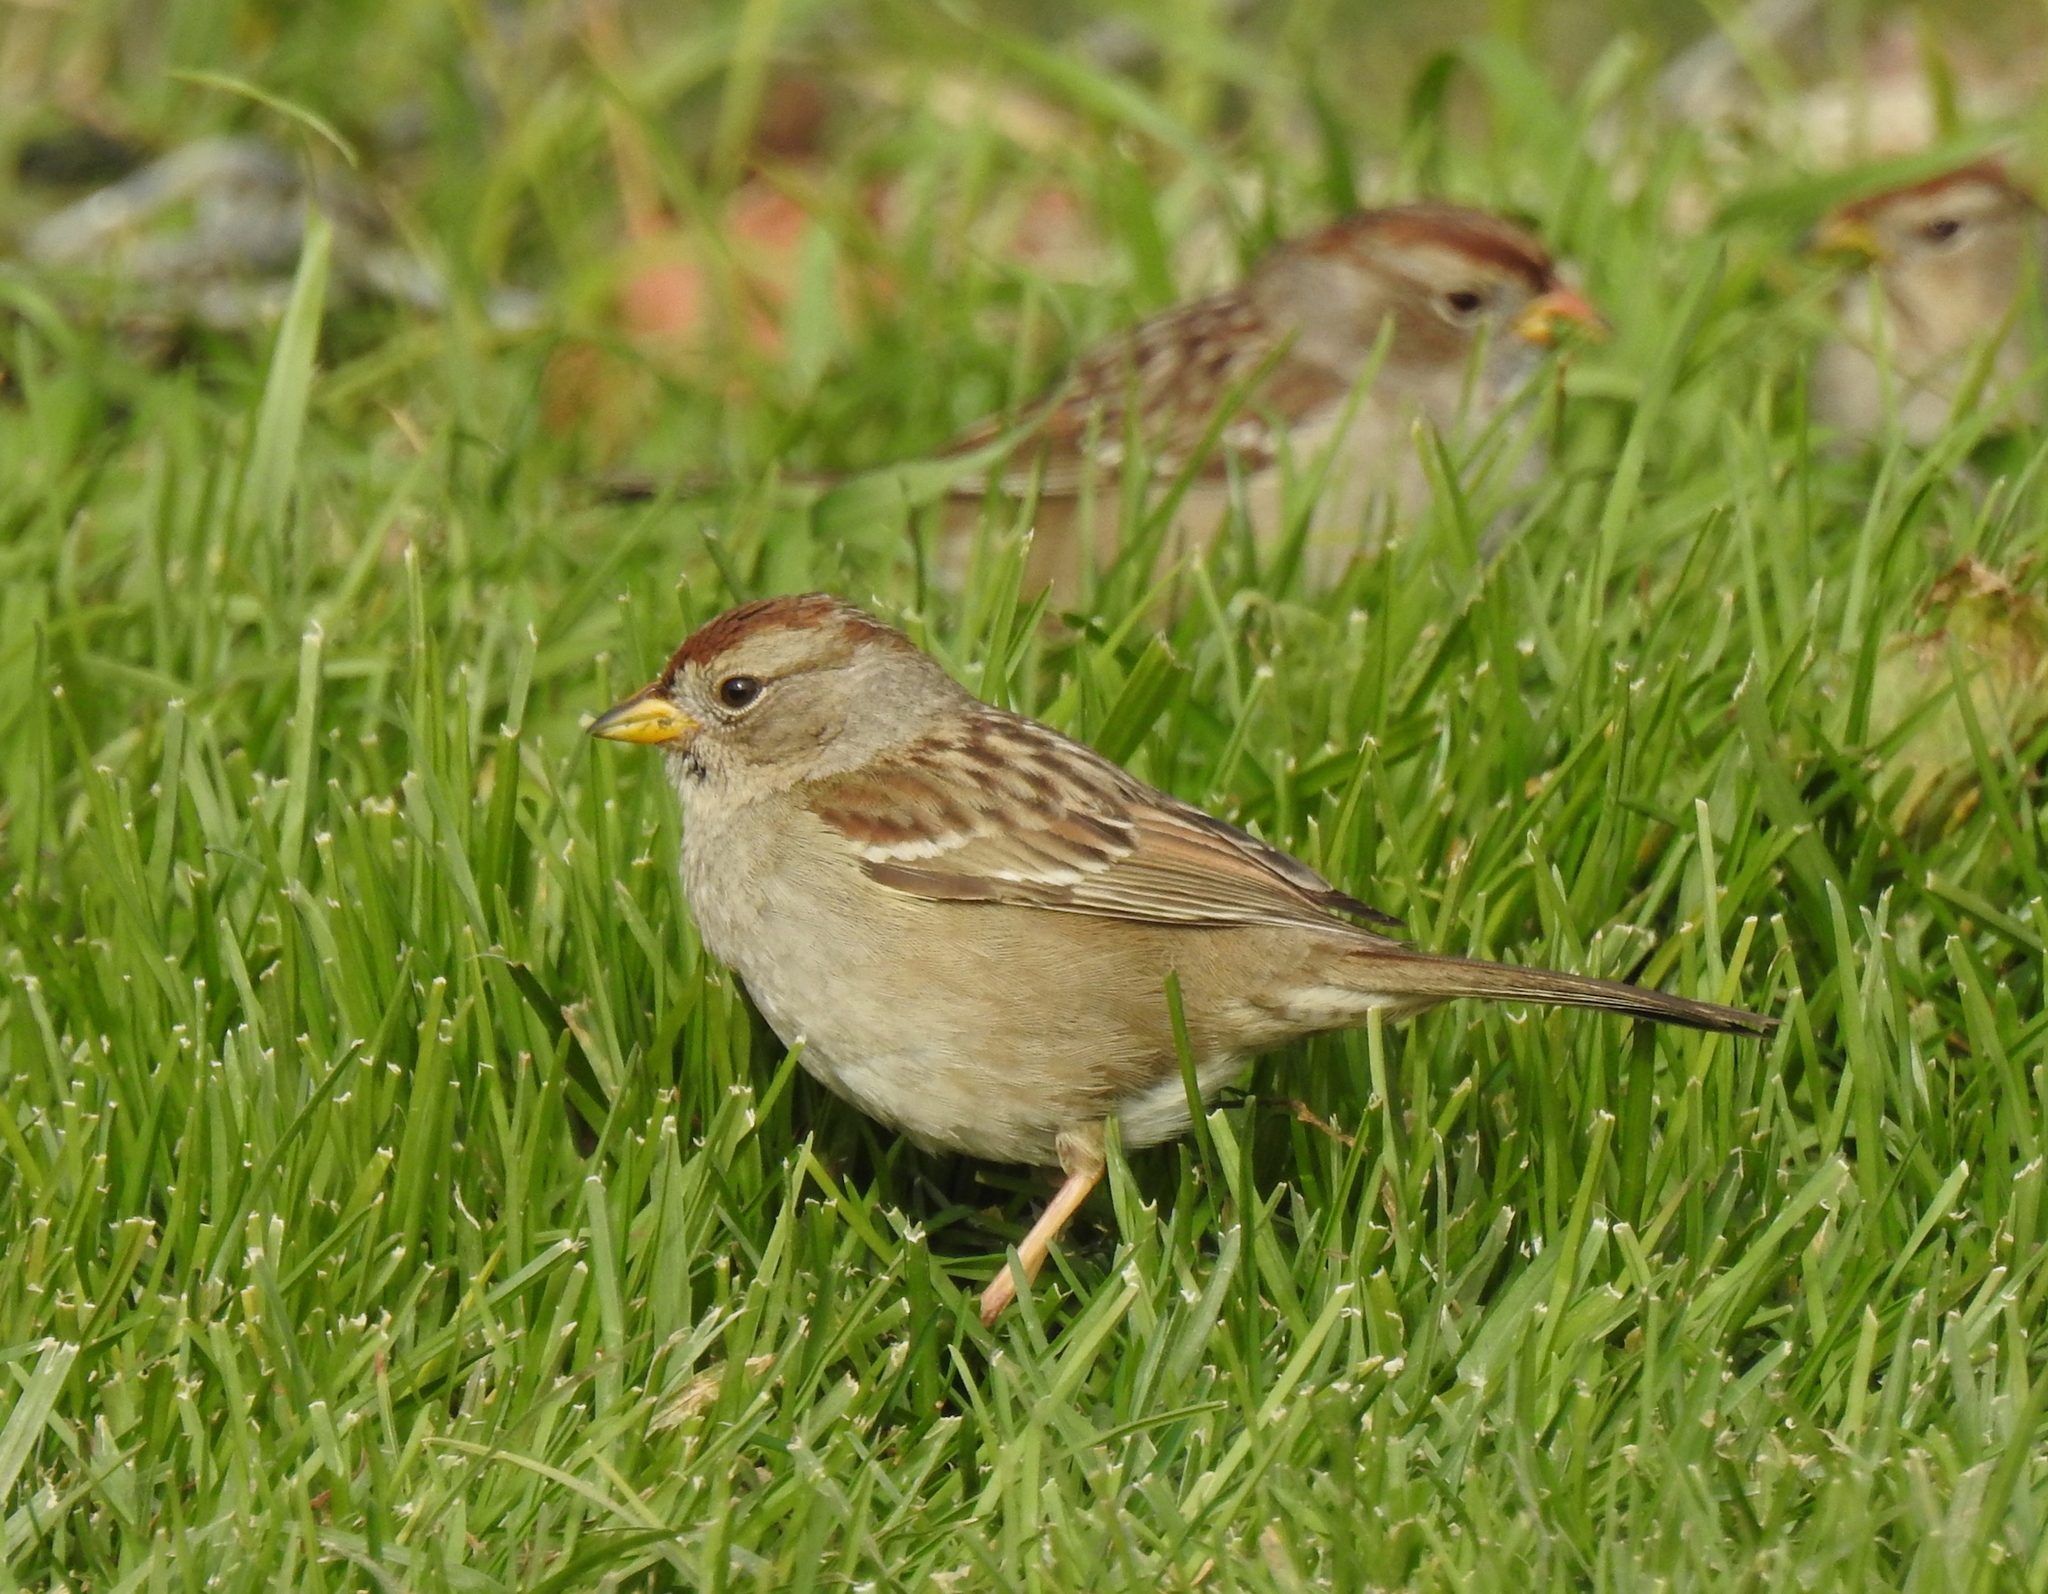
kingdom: Animalia
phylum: Chordata
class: Aves
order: Passeriformes
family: Passerellidae
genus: Zonotrichia
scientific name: Zonotrichia leucophrys
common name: White-crowned sparrow
